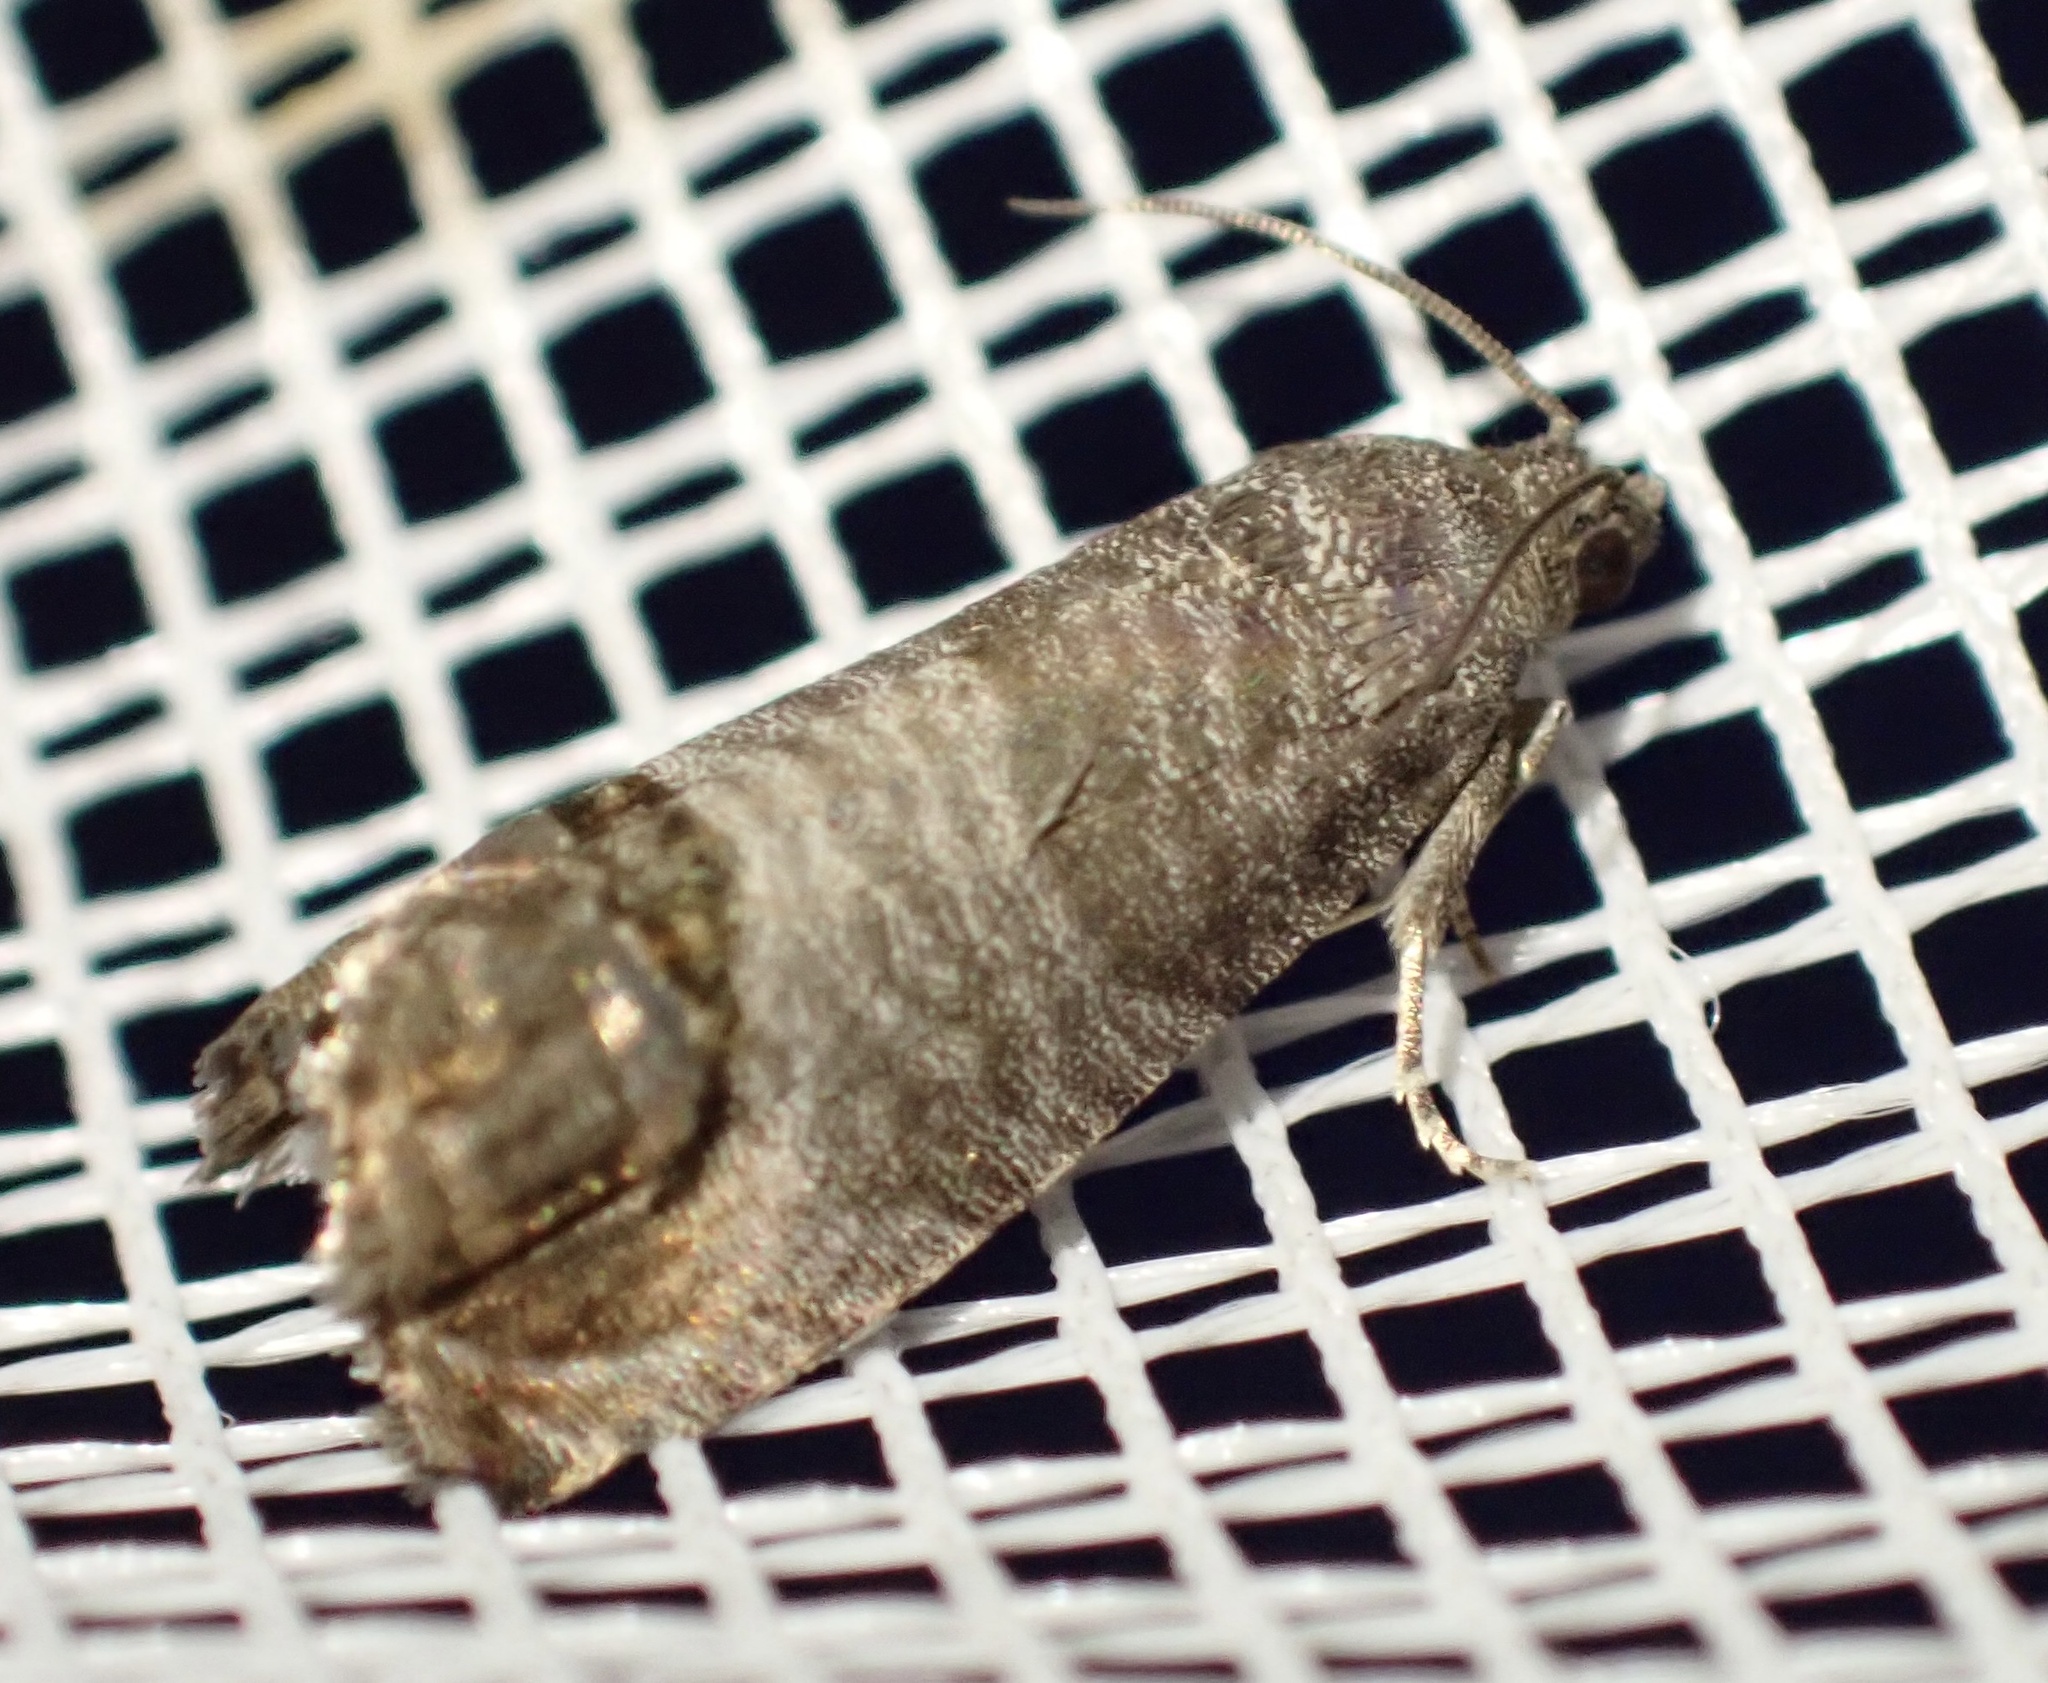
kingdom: Animalia
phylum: Arthropoda
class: Insecta
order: Lepidoptera
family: Tortricidae
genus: Cydia
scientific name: Cydia pomonella
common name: Codling moth
